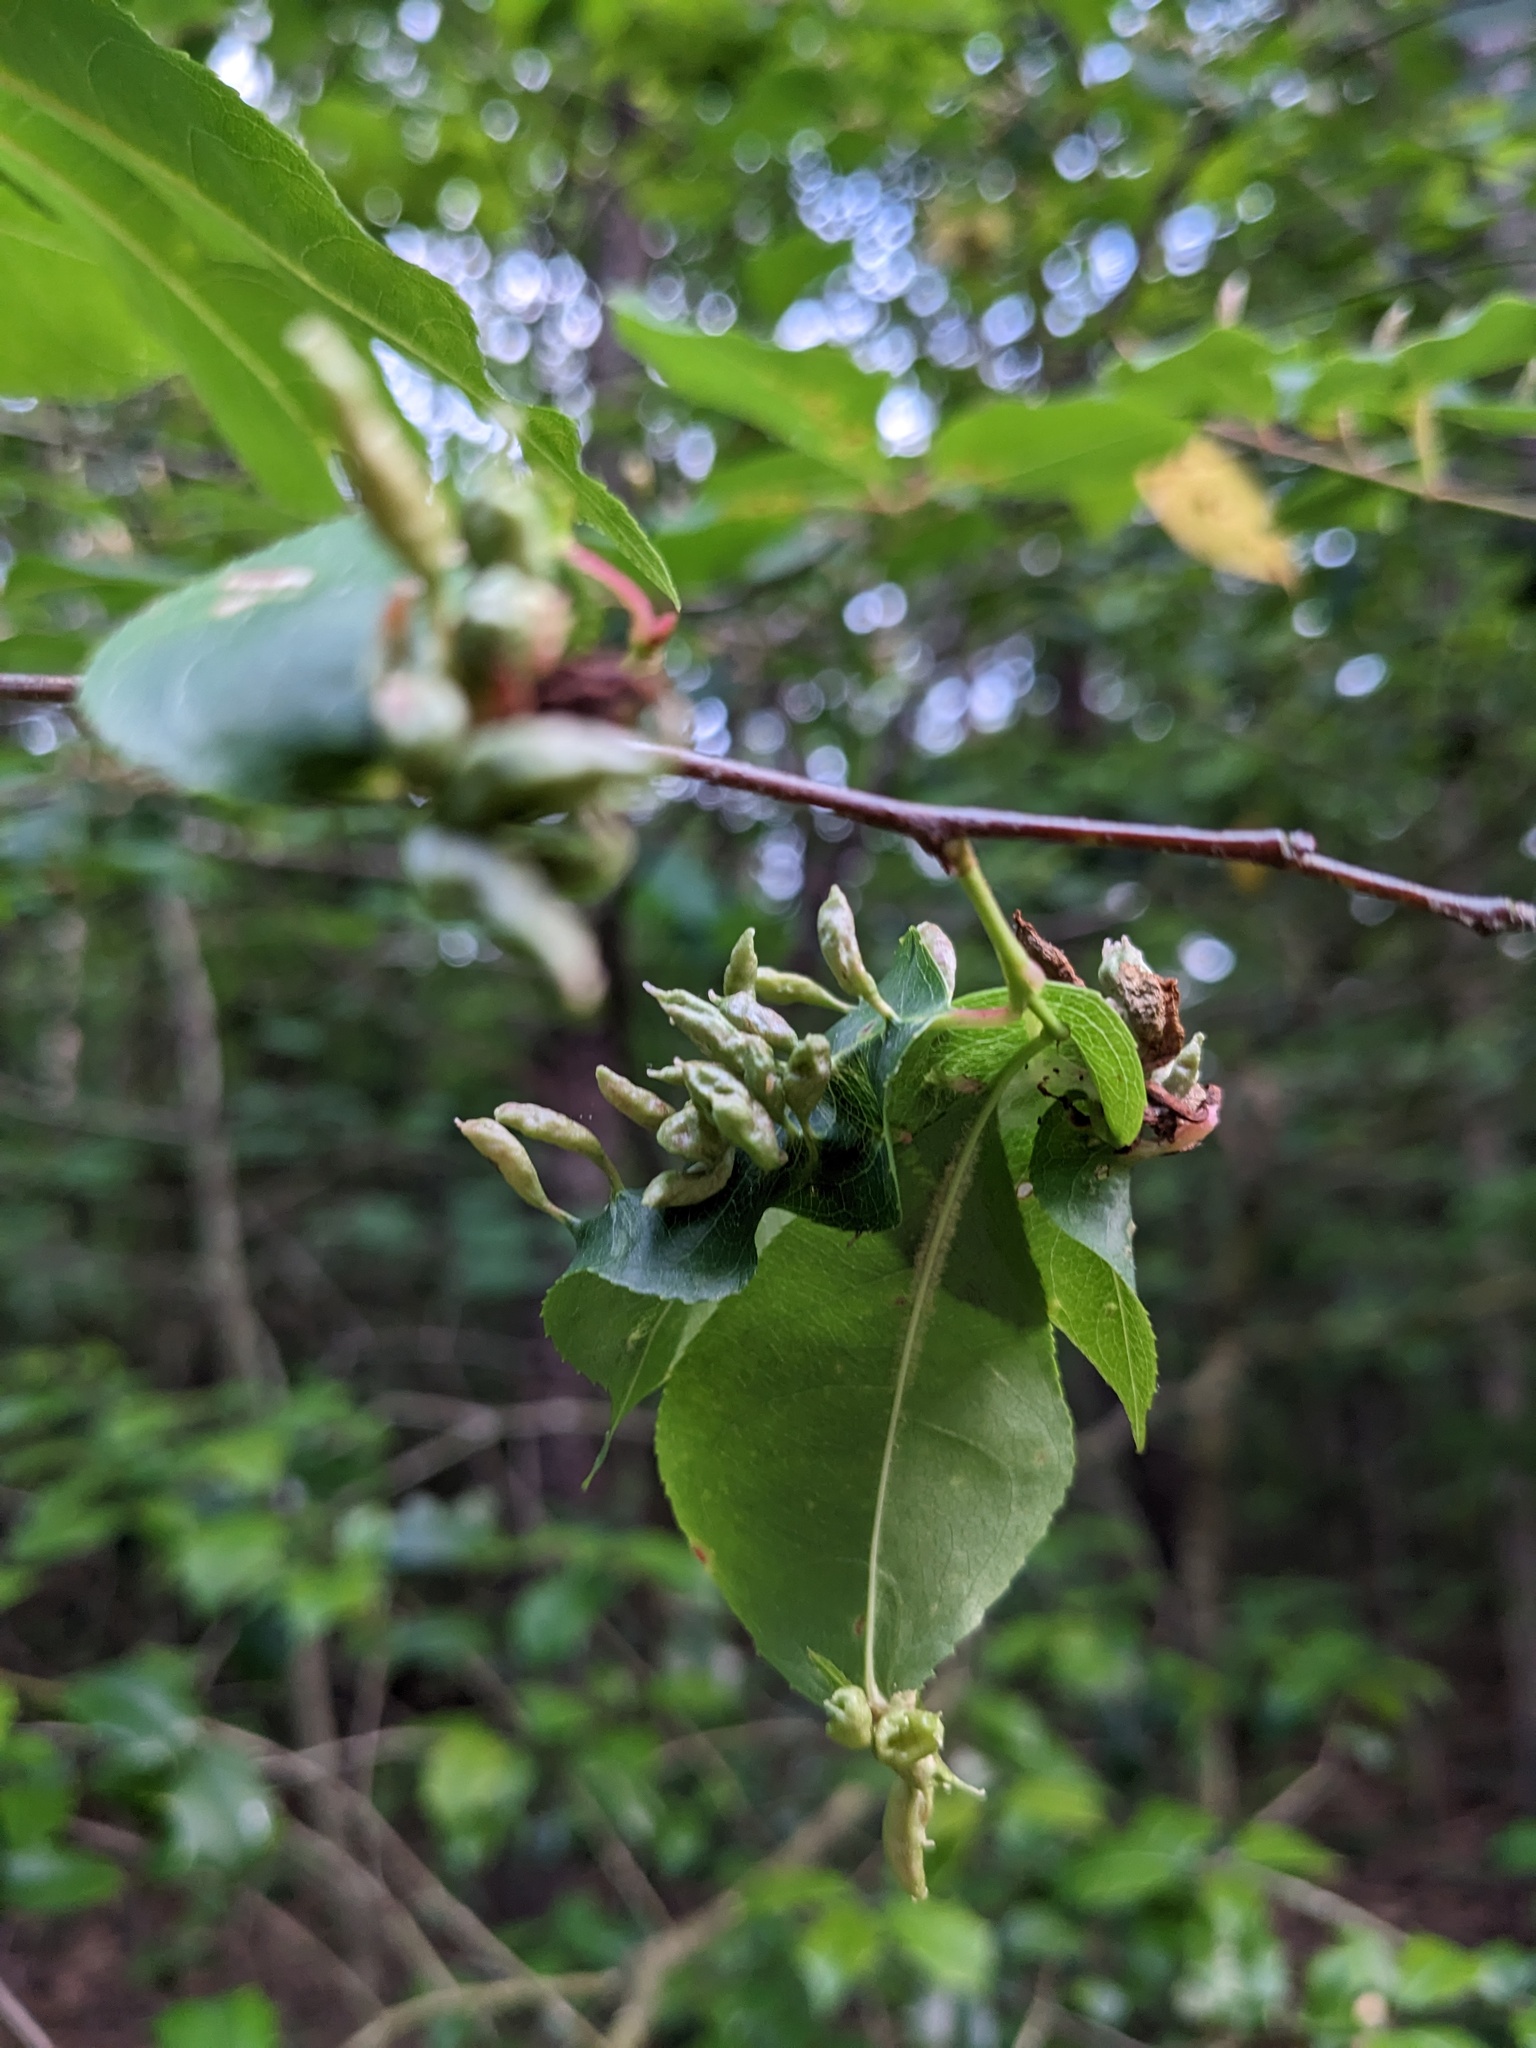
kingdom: Animalia
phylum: Arthropoda
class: Arachnida
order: Trombidiformes
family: Eriophyidae
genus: Eriophyes
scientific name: Eriophyes
